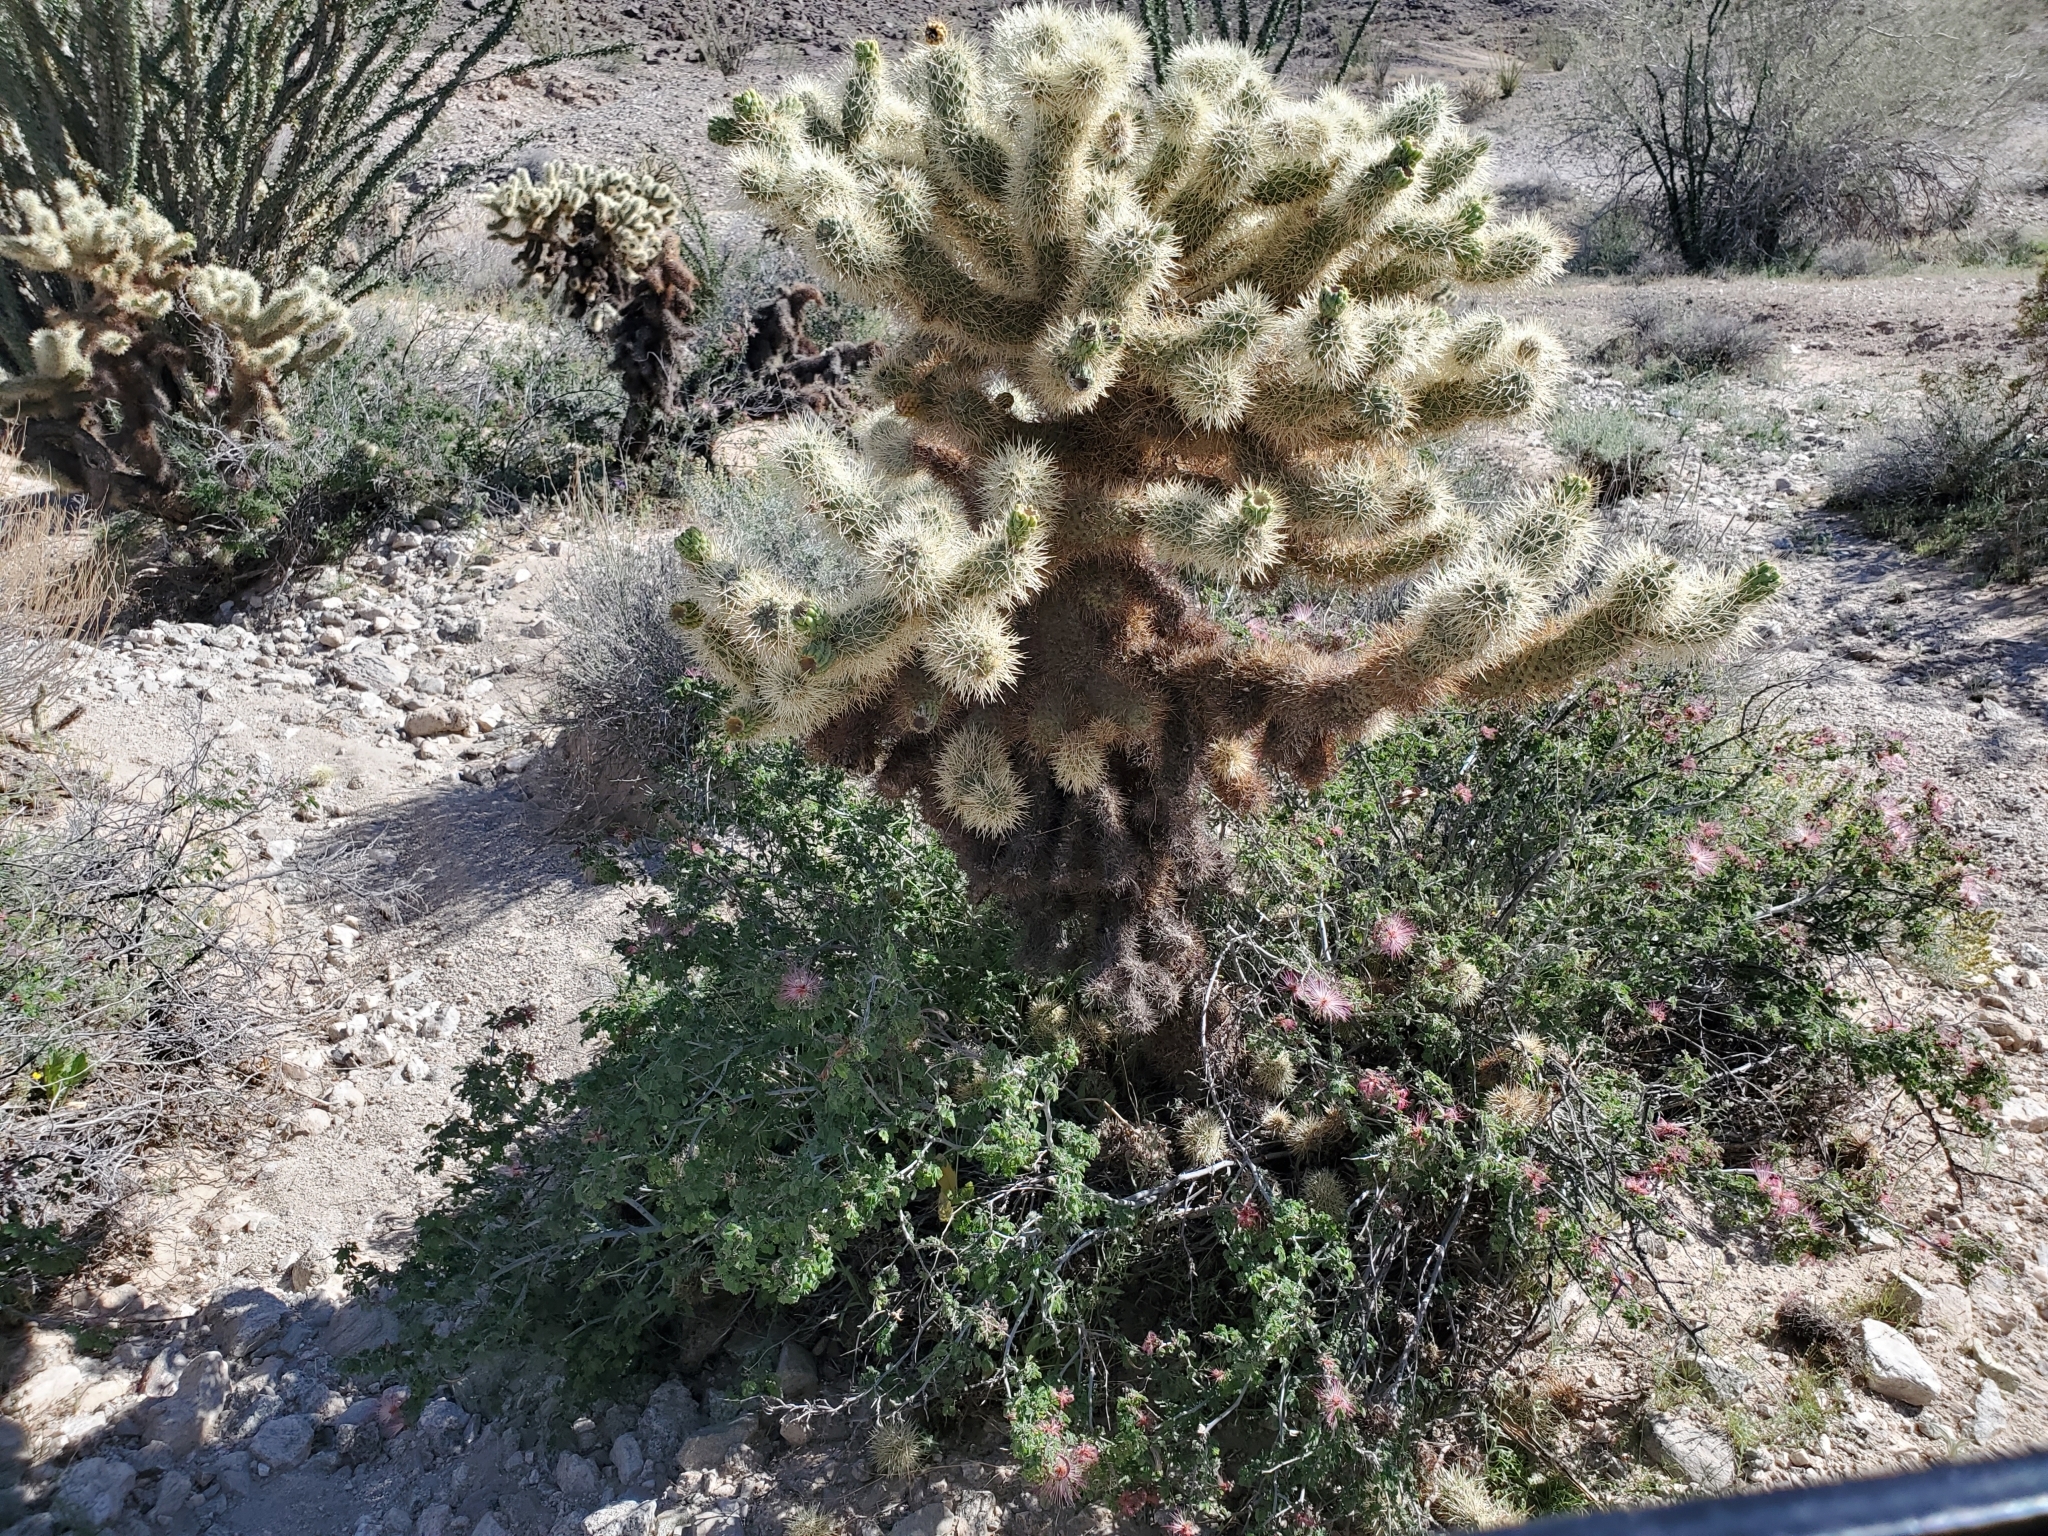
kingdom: Plantae
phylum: Tracheophyta
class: Magnoliopsida
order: Caryophyllales
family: Cactaceae
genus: Cylindropuntia
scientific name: Cylindropuntia fosbergii
